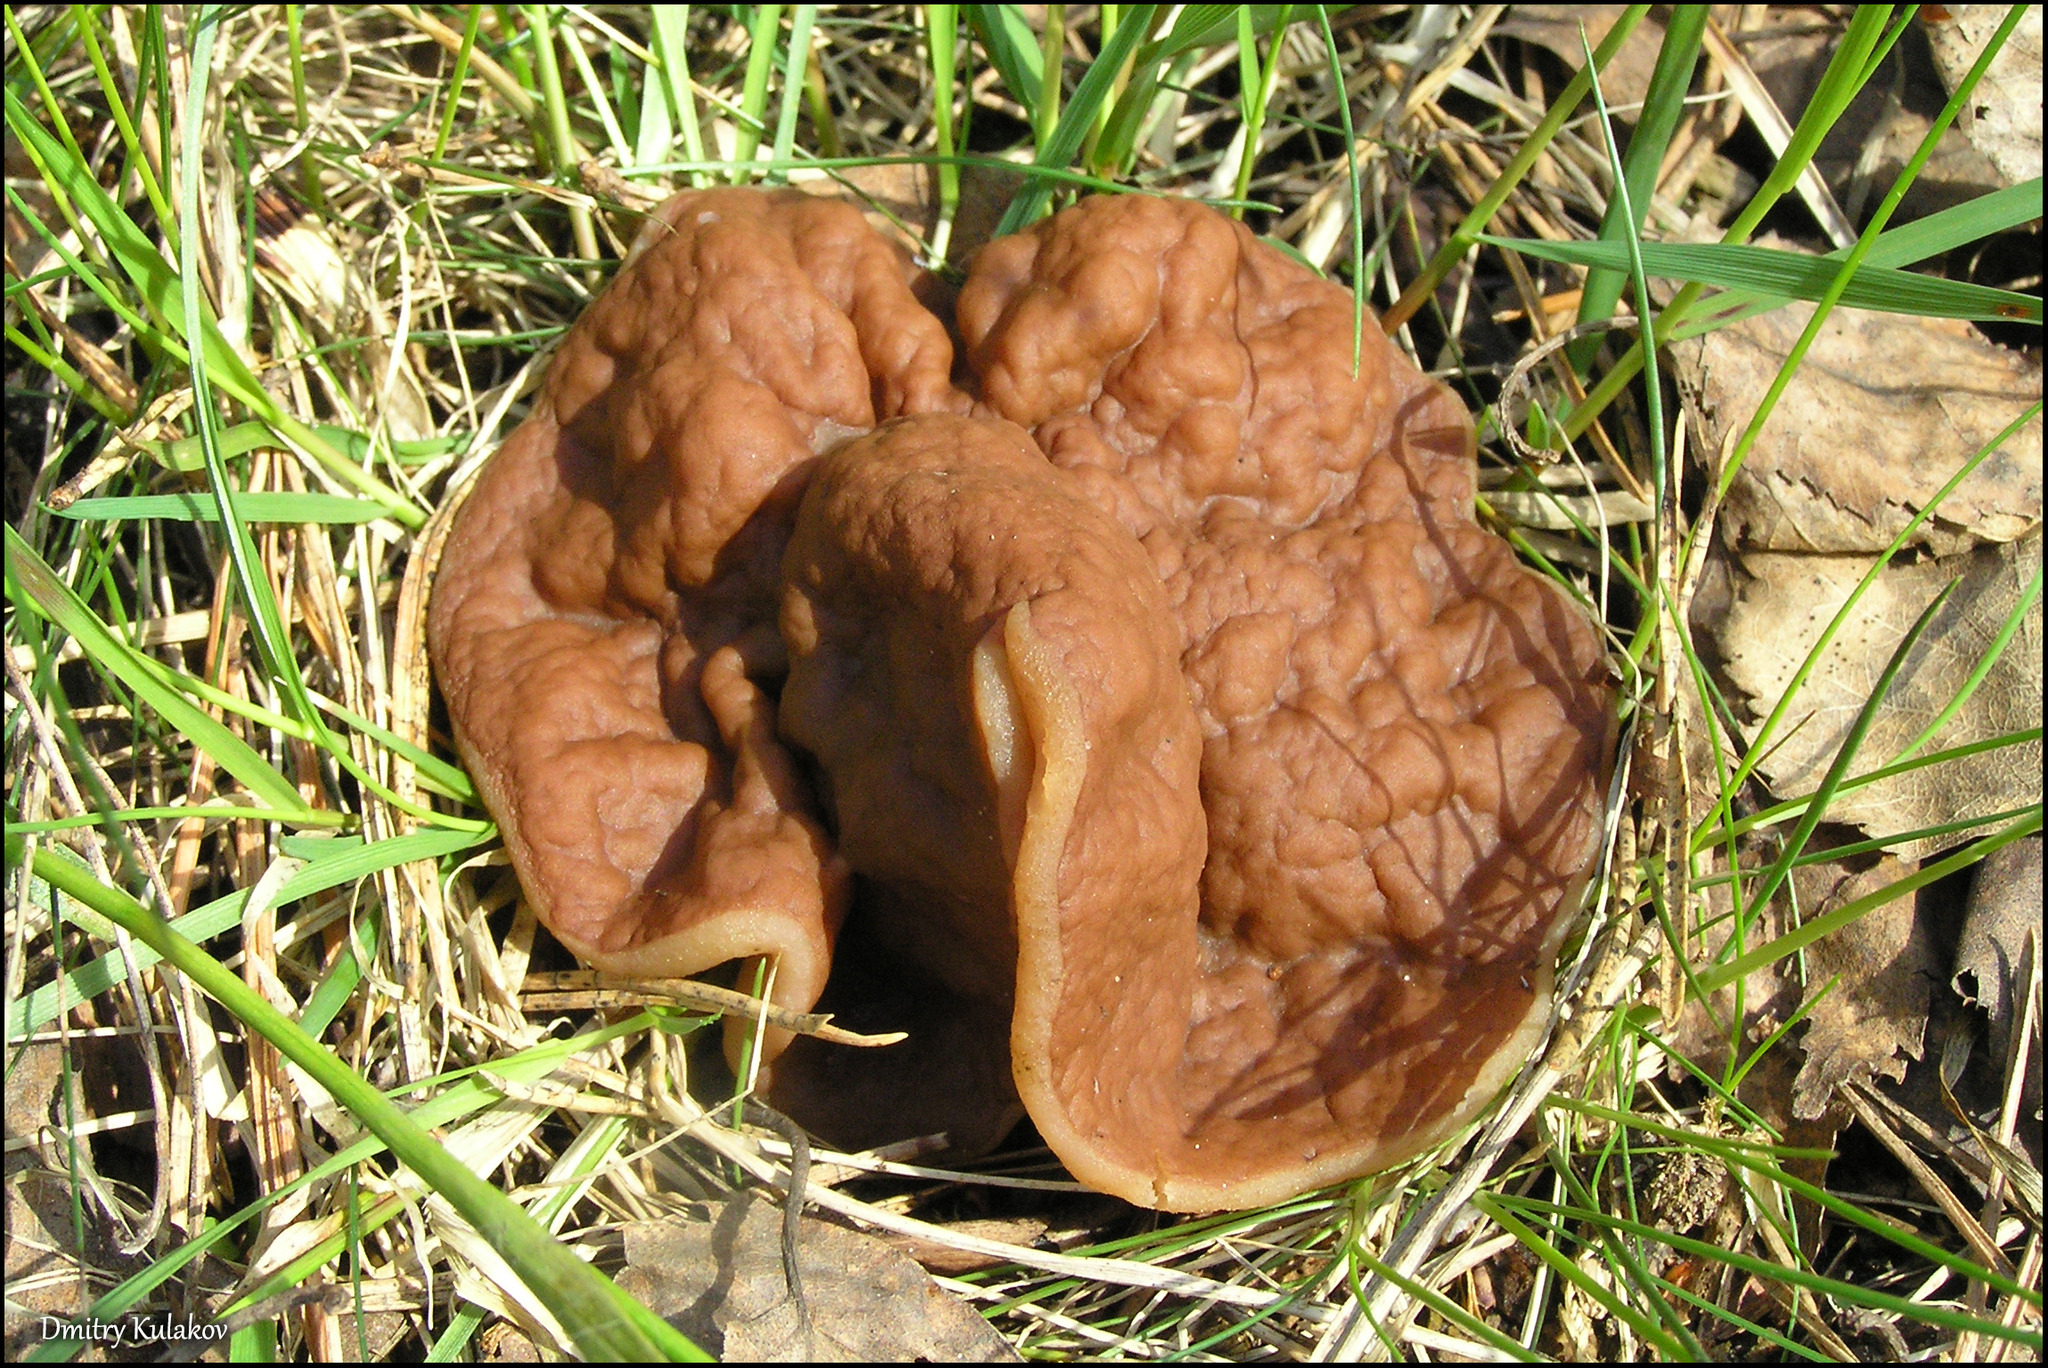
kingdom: Fungi
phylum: Ascomycota
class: Pezizomycetes
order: Pezizales
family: Discinaceae
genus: Discina
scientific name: Discina ancilis
